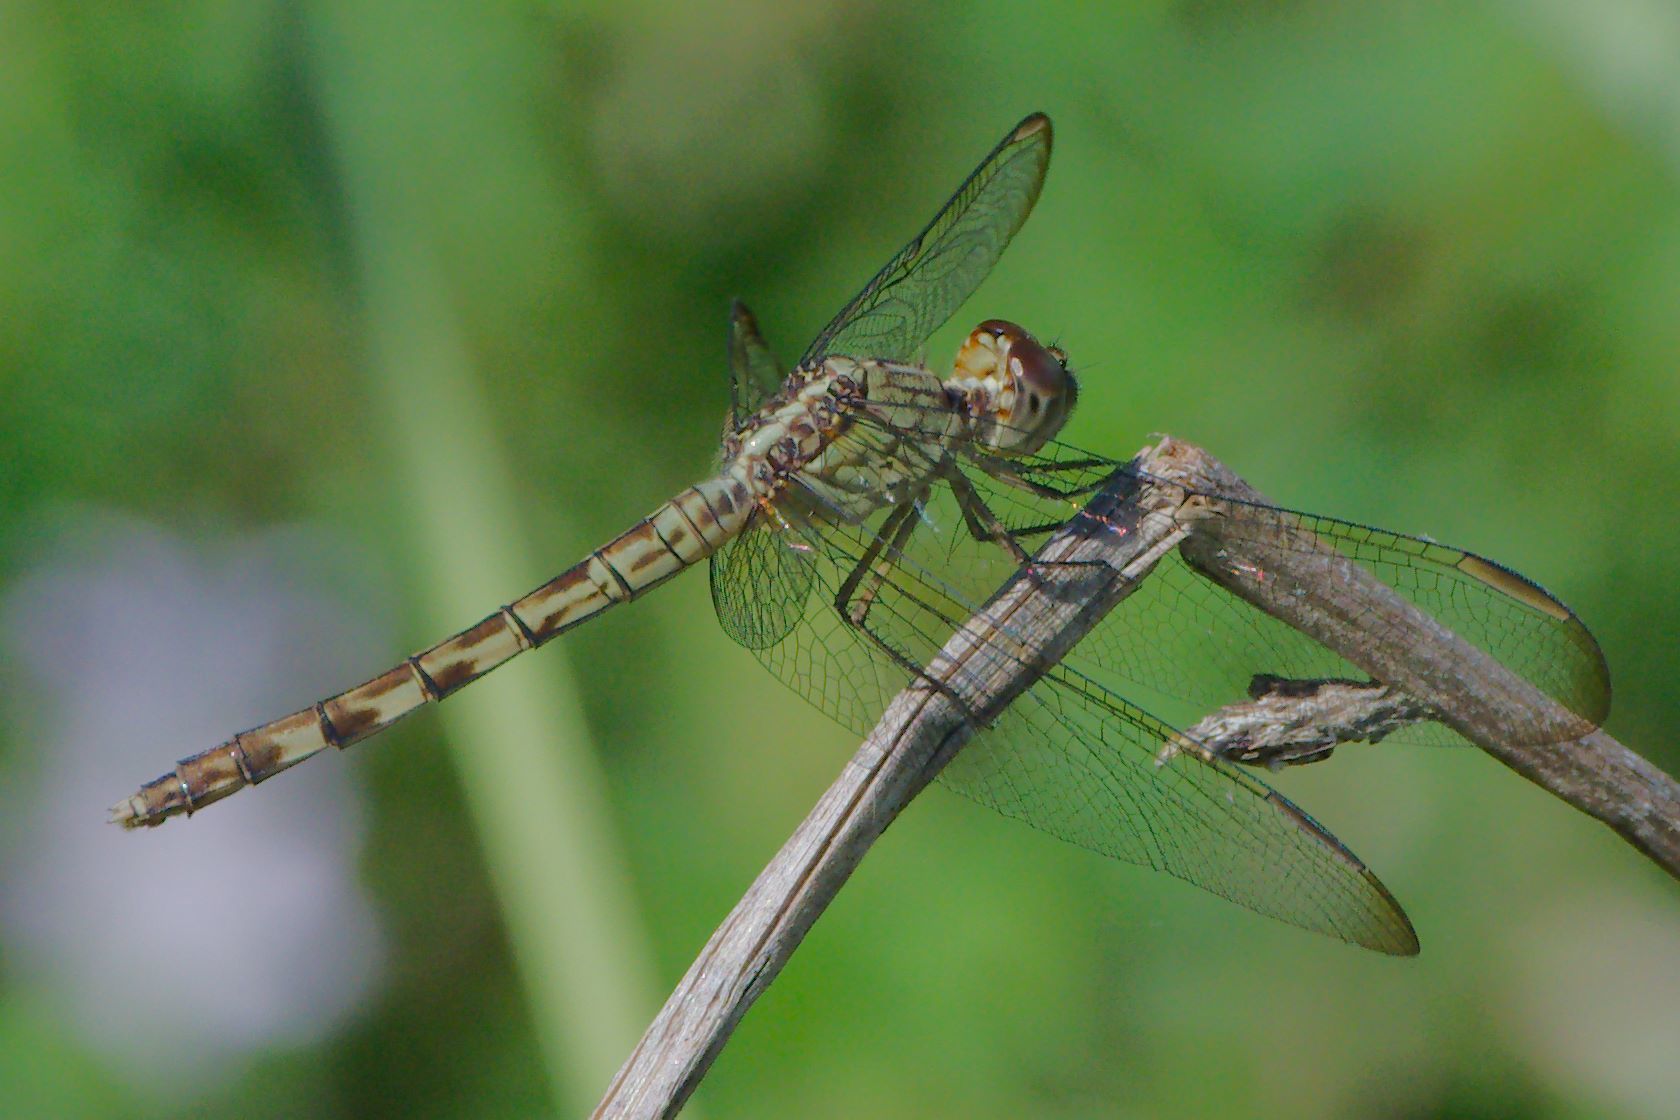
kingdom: Animalia
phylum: Arthropoda
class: Insecta
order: Odonata
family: Libellulidae
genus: Erythrodiplax
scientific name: Erythrodiplax umbrata
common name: Band-winged dragonlet
